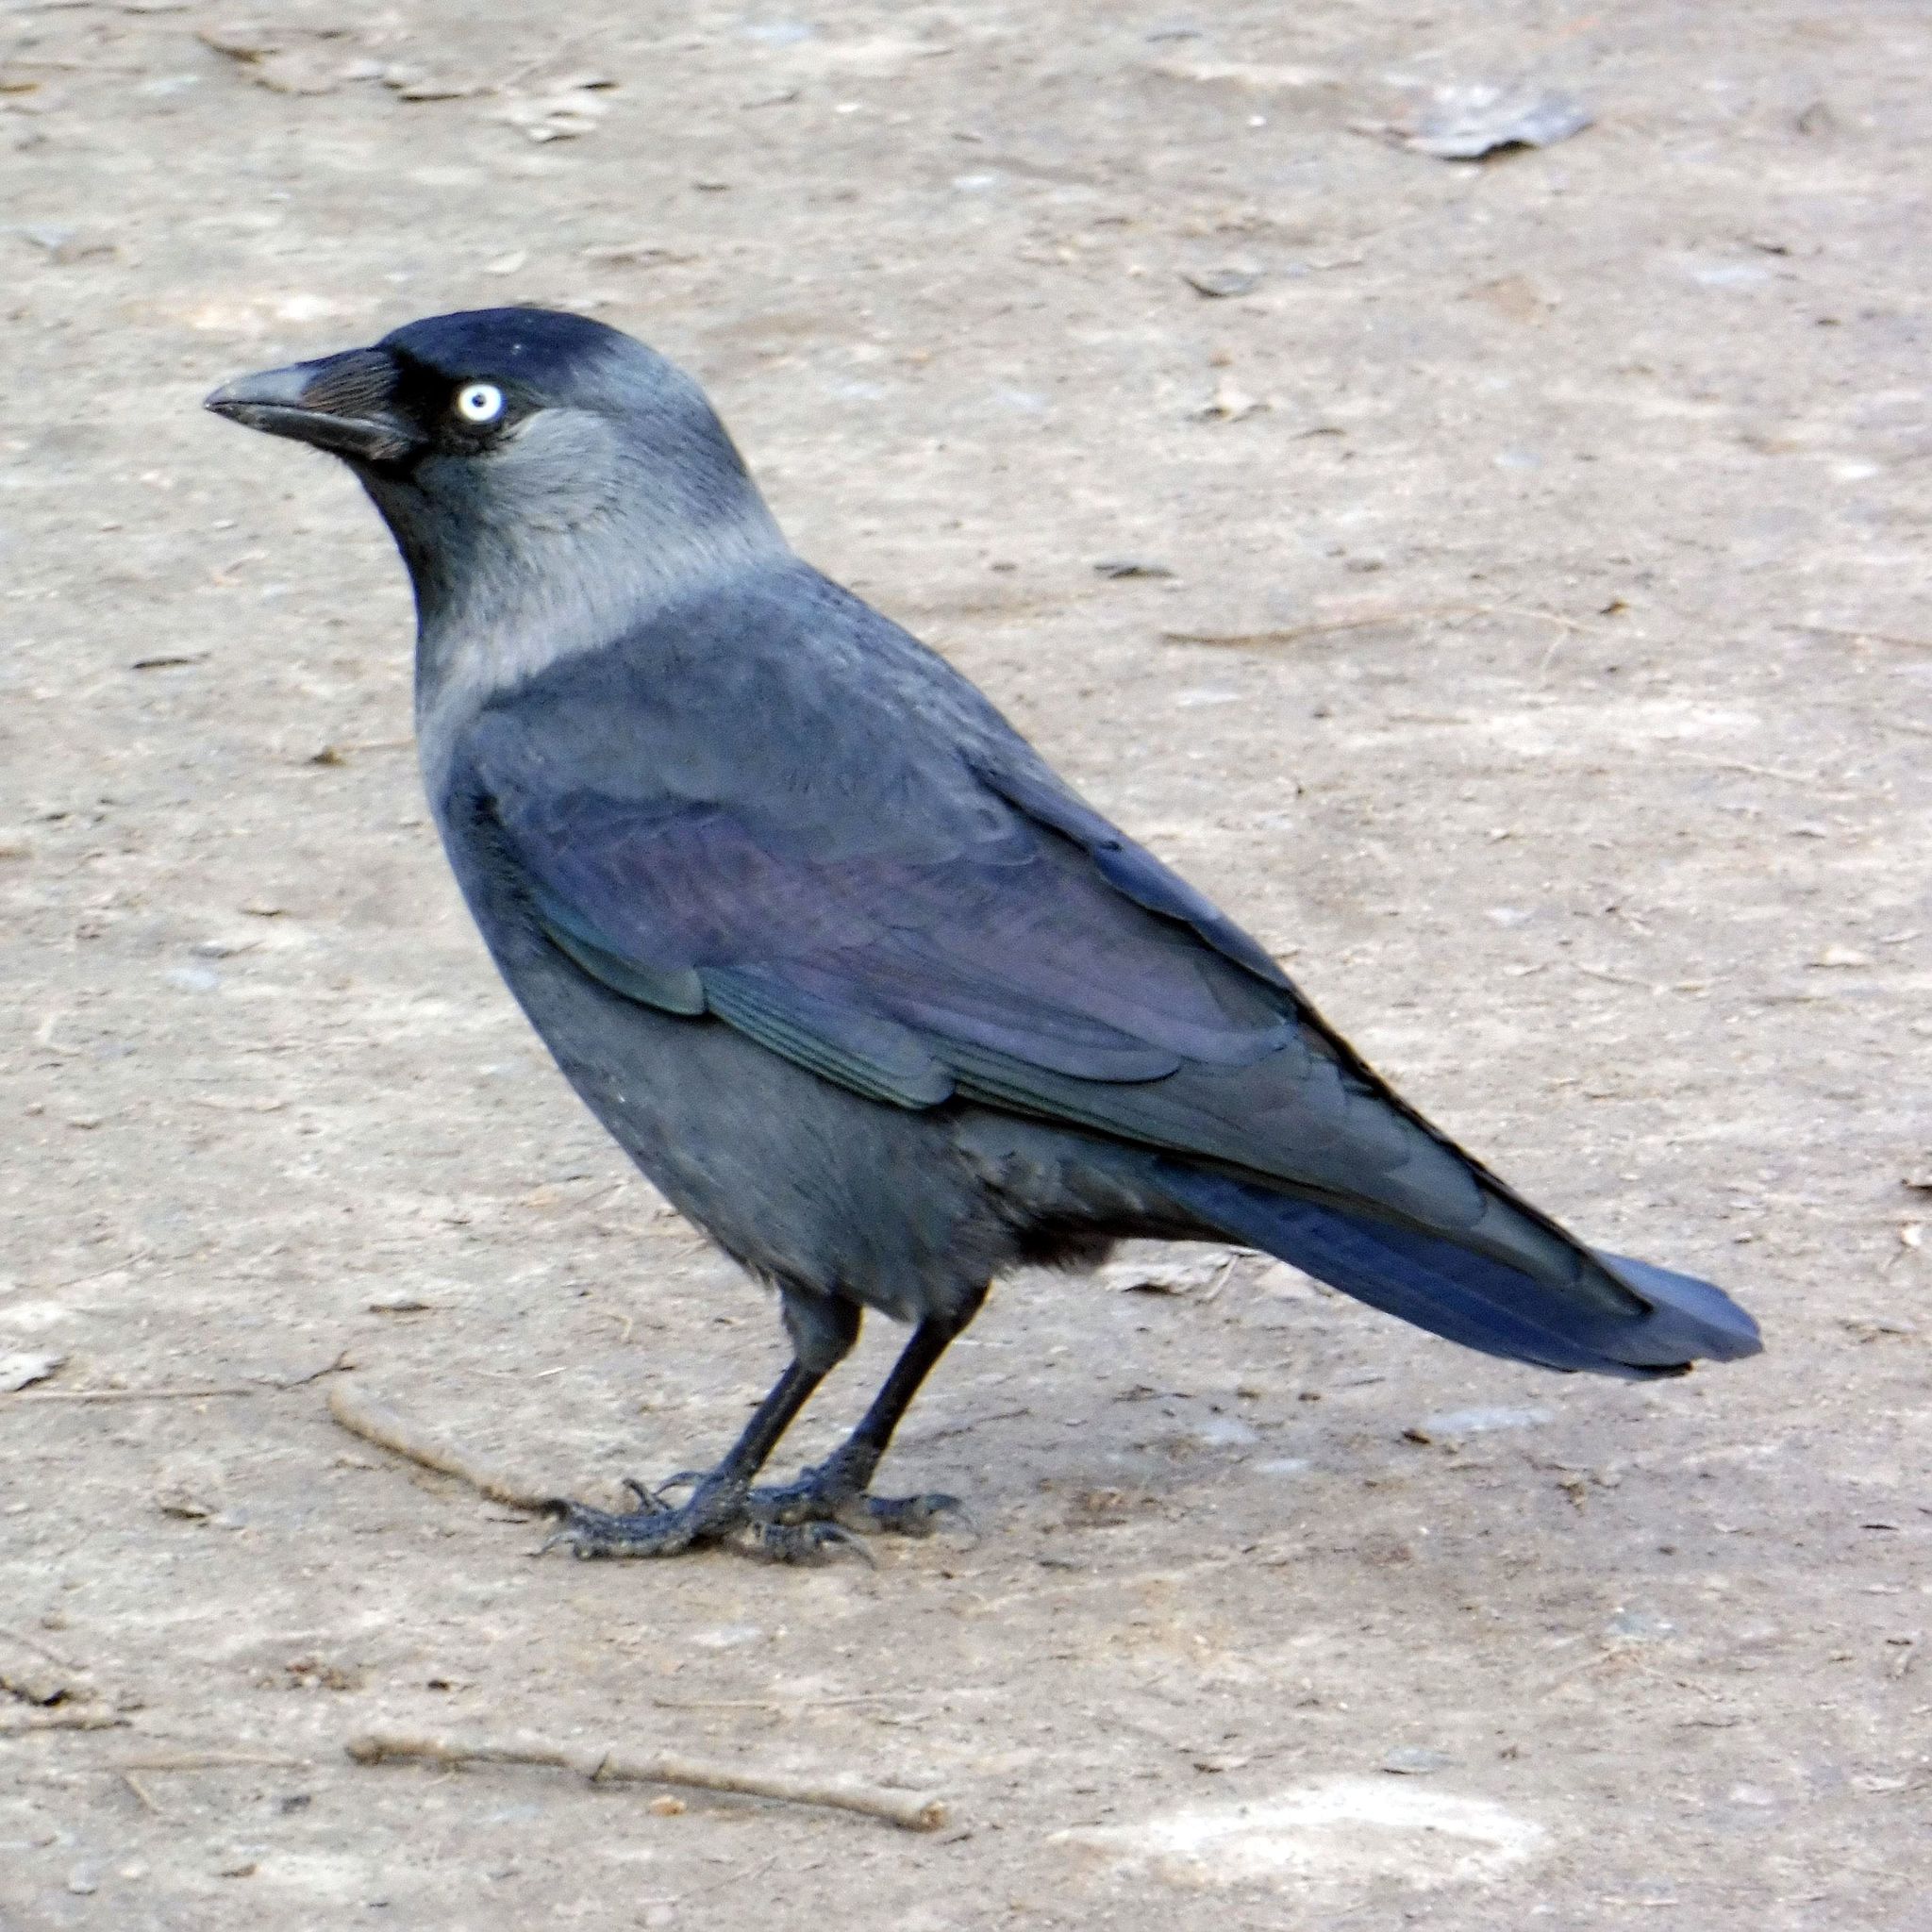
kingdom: Animalia
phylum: Chordata
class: Aves
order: Passeriformes
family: Corvidae
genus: Coloeus
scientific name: Coloeus monedula
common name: Western jackdaw
